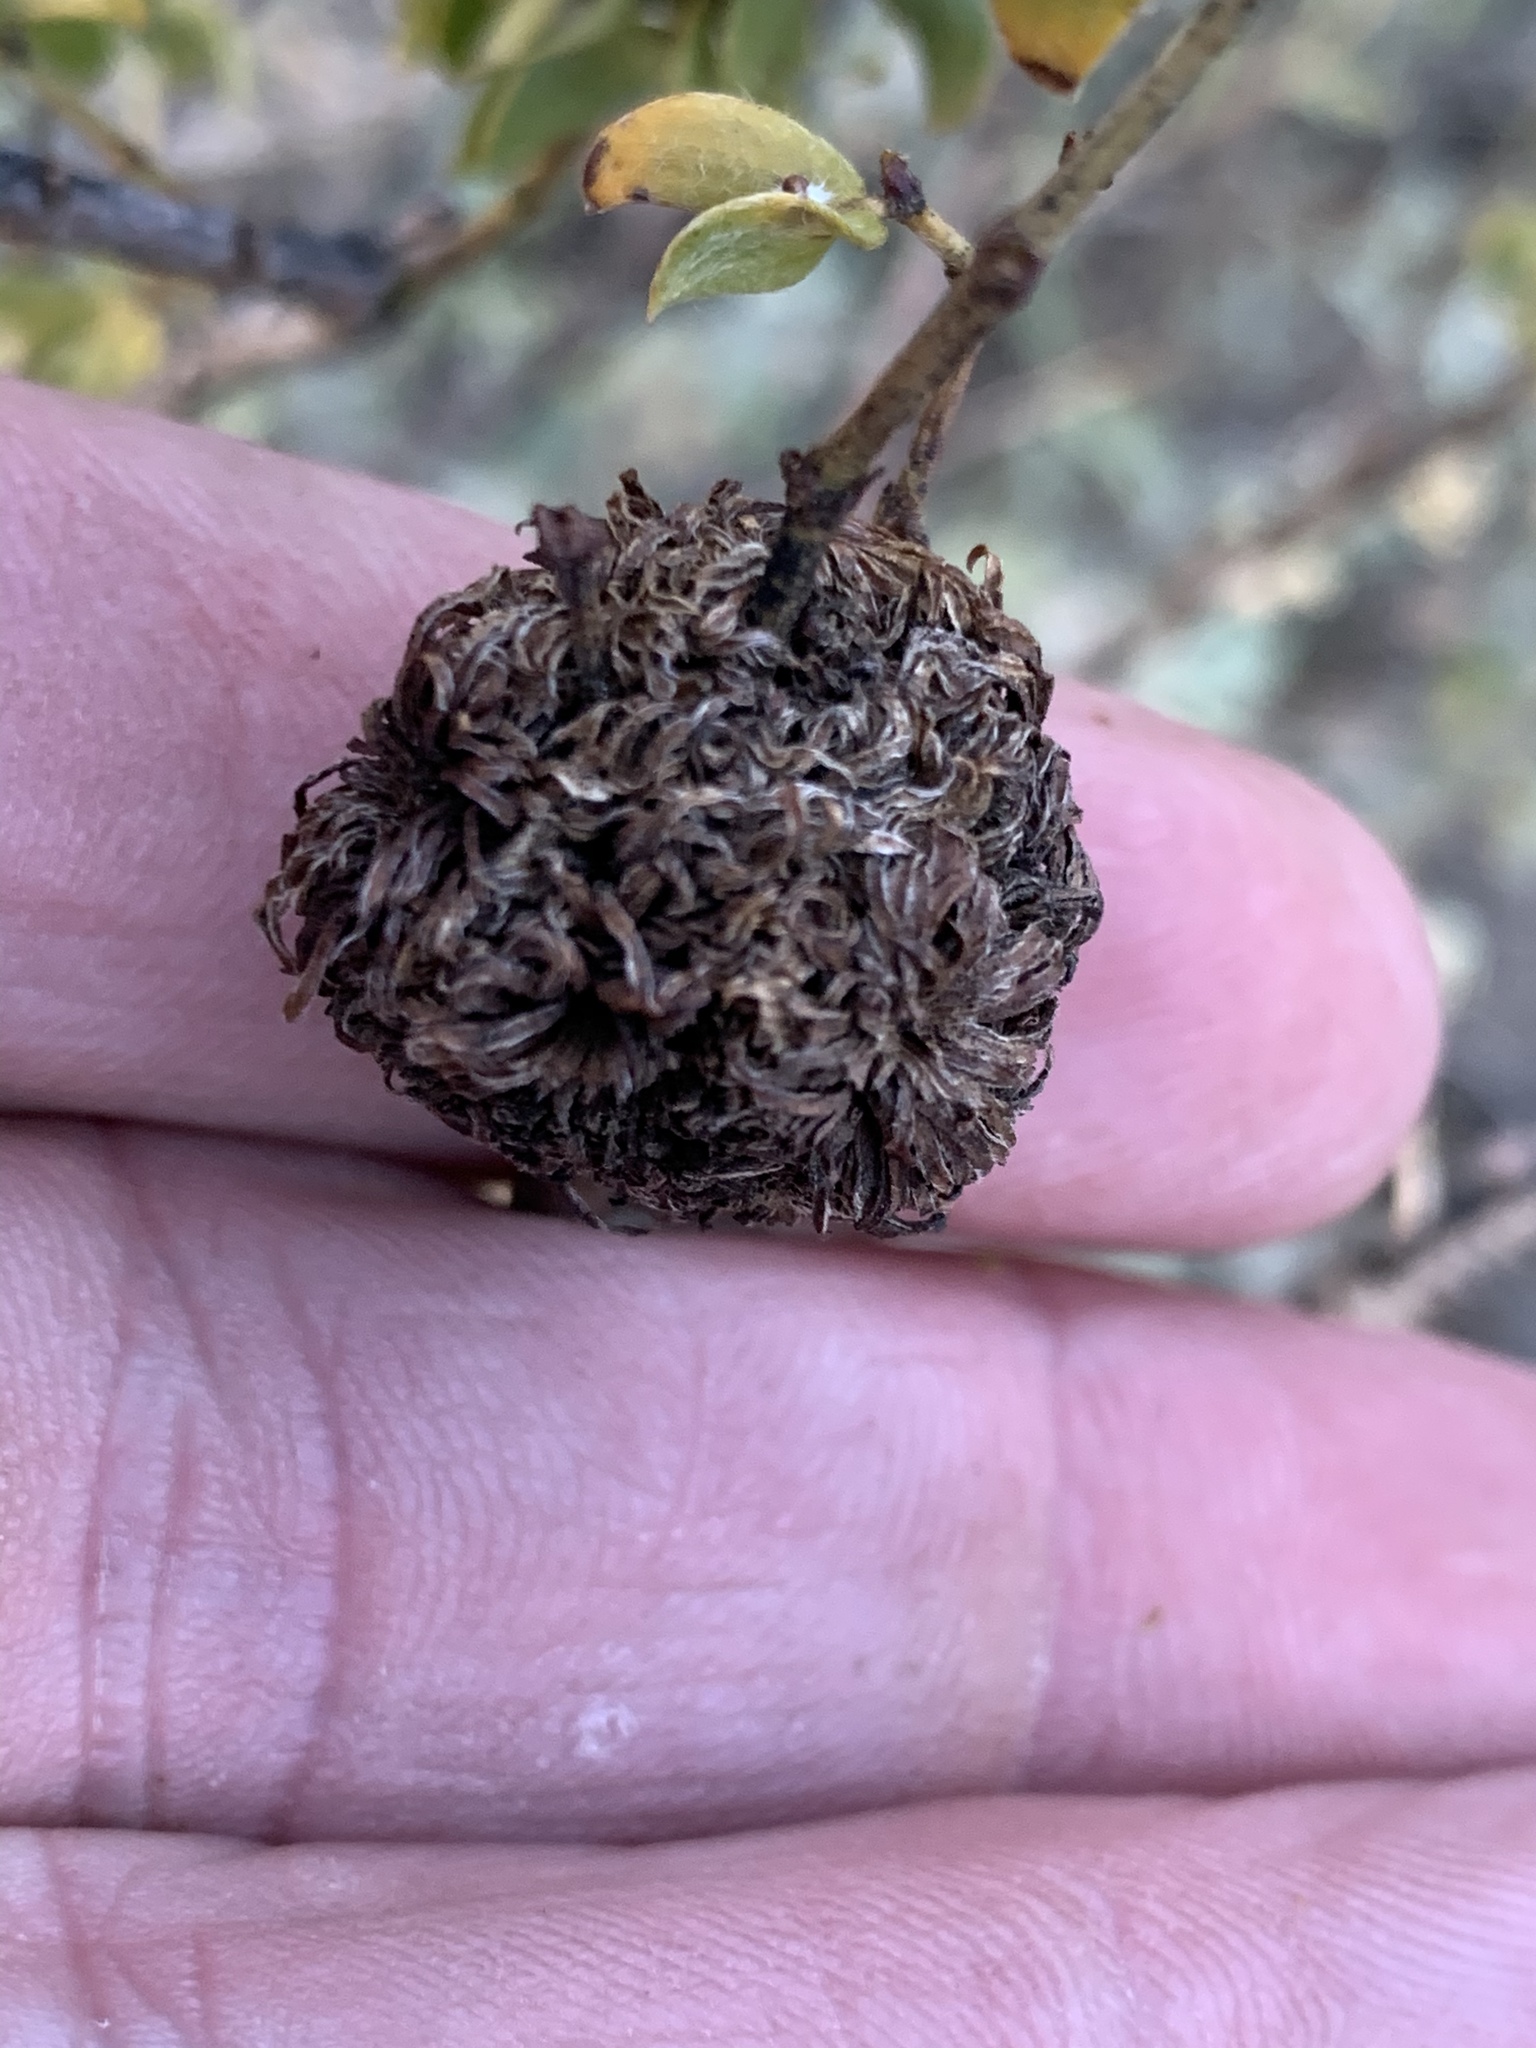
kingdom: Animalia
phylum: Arthropoda
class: Insecta
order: Diptera
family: Cecidomyiidae
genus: Asphondylia
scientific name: Asphondylia auripila
